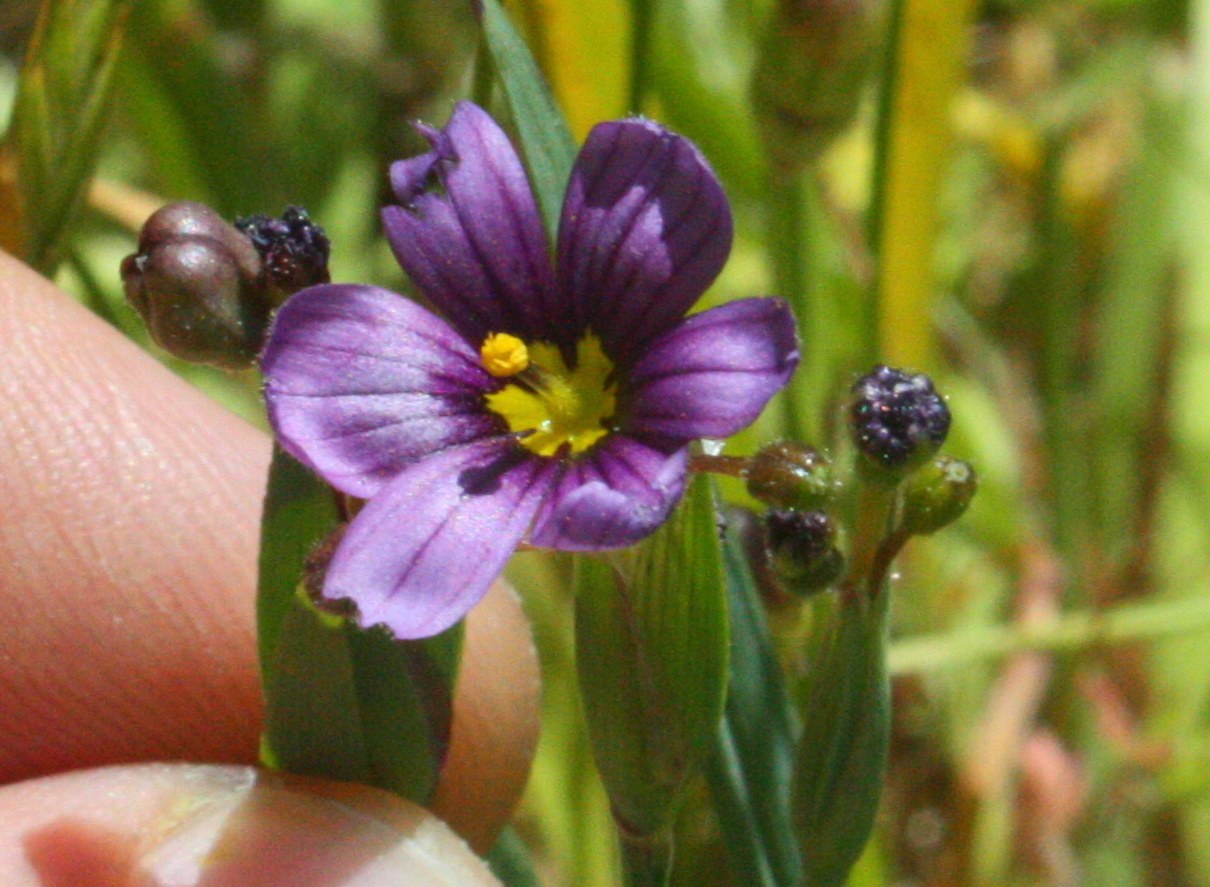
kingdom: Plantae
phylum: Tracheophyta
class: Liliopsida
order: Asparagales
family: Iridaceae
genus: Sisyrinchium
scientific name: Sisyrinchium bellum
